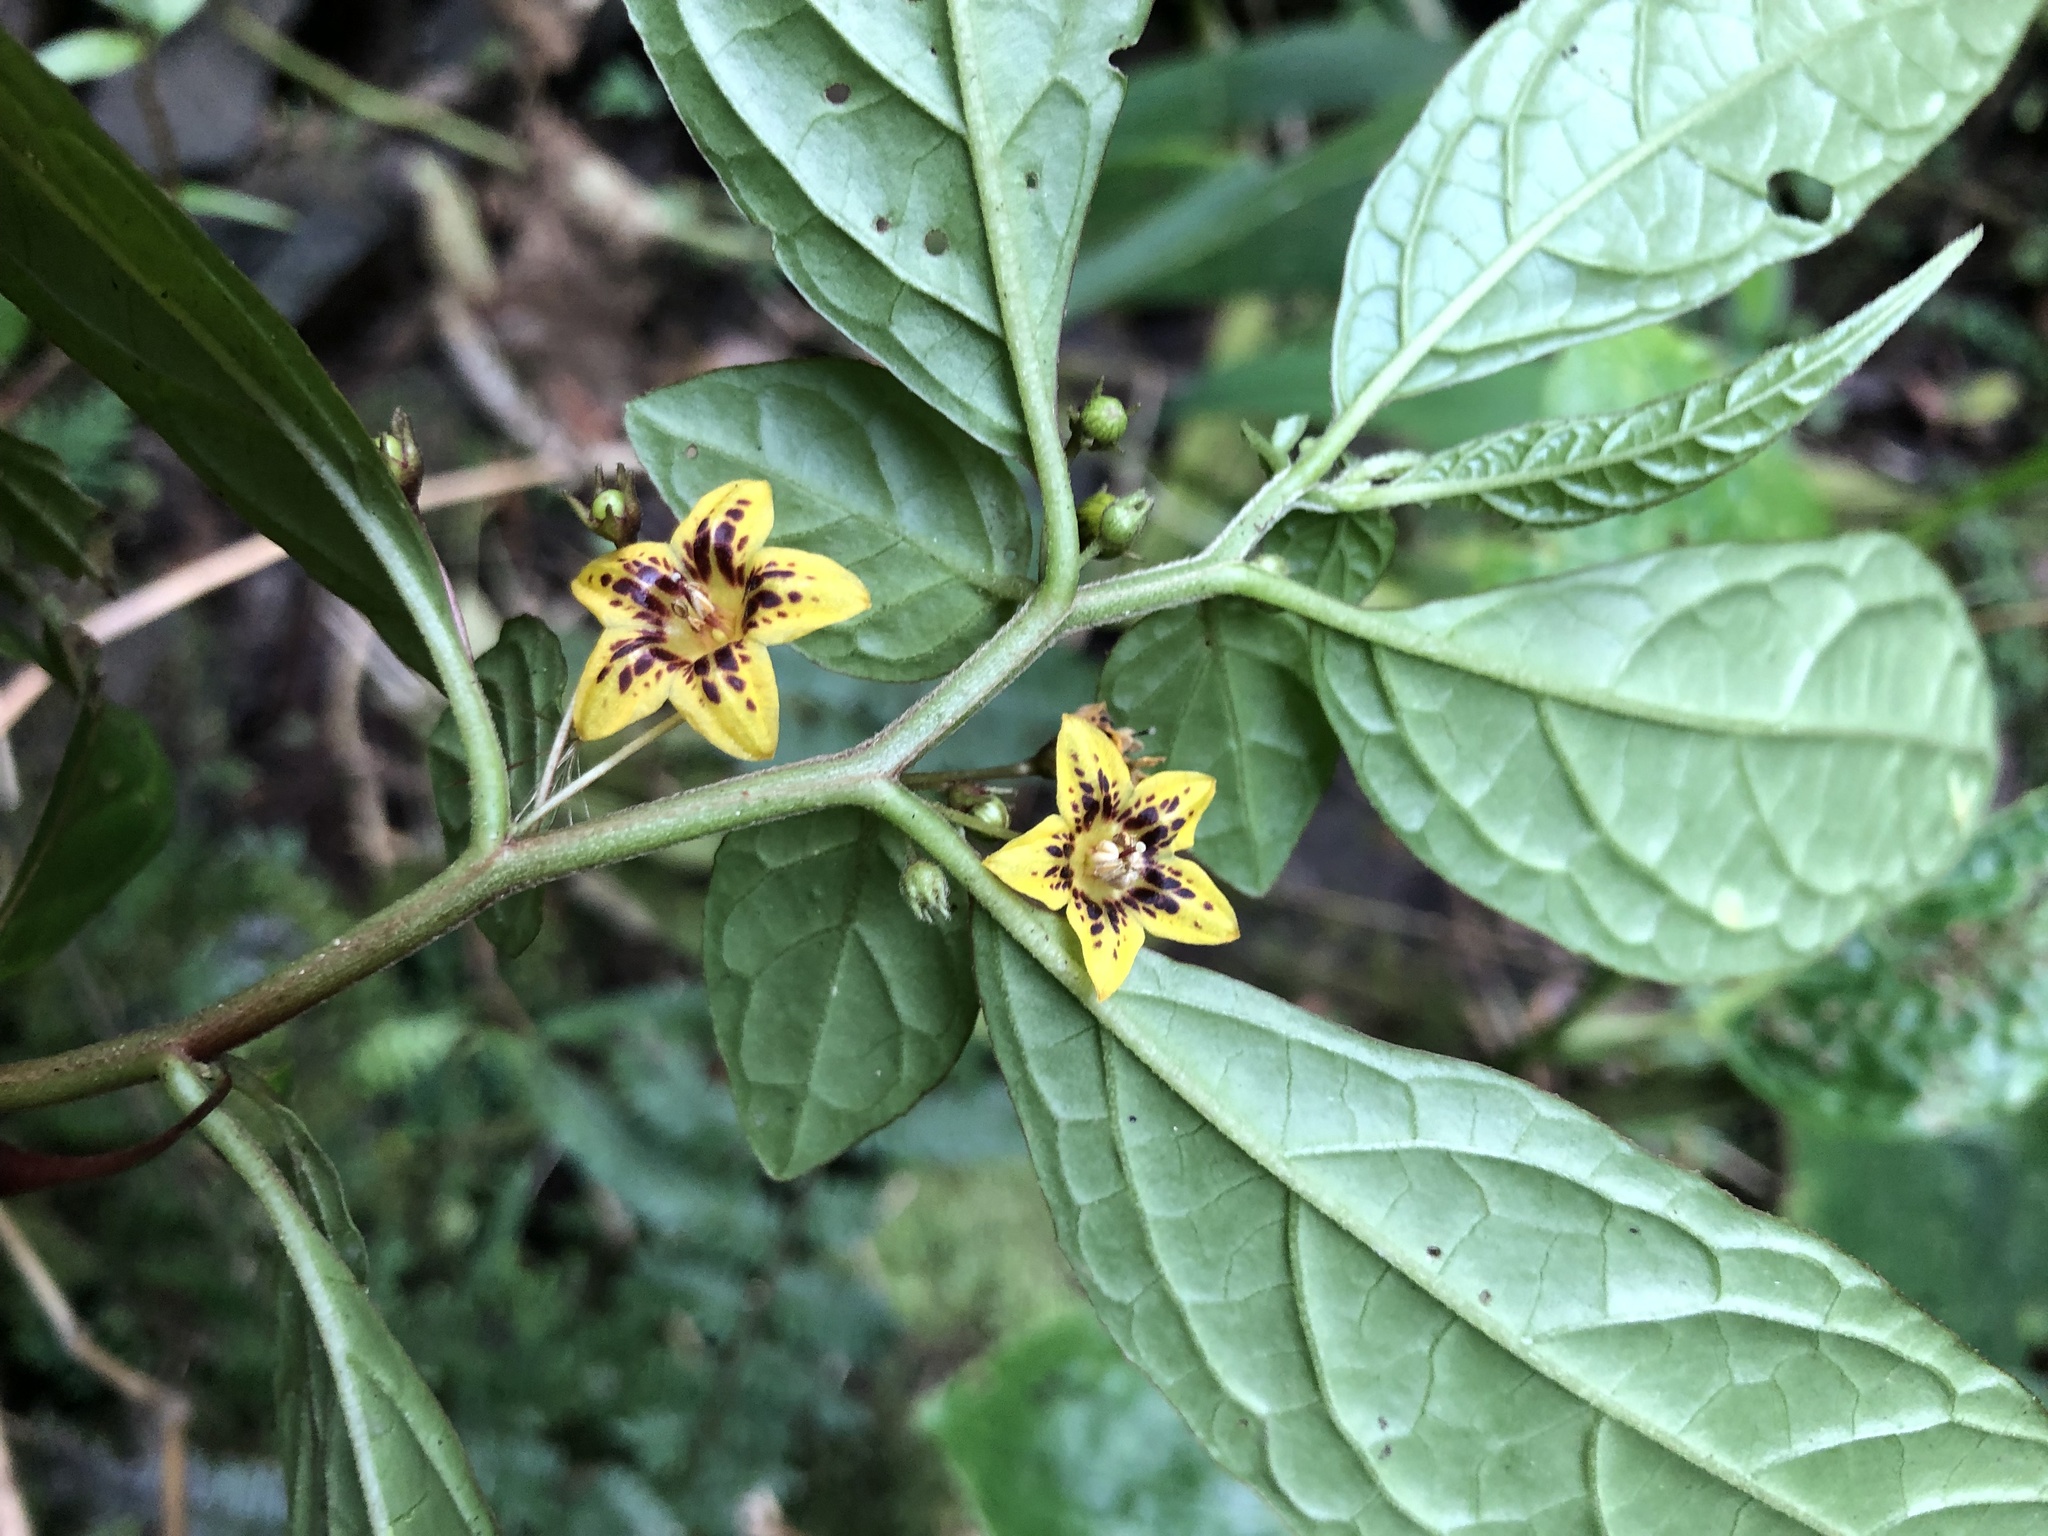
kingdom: Plantae
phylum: Tracheophyta
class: Magnoliopsida
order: Solanales
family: Solanaceae
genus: Capsicum
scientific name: Capsicum geminifolium
